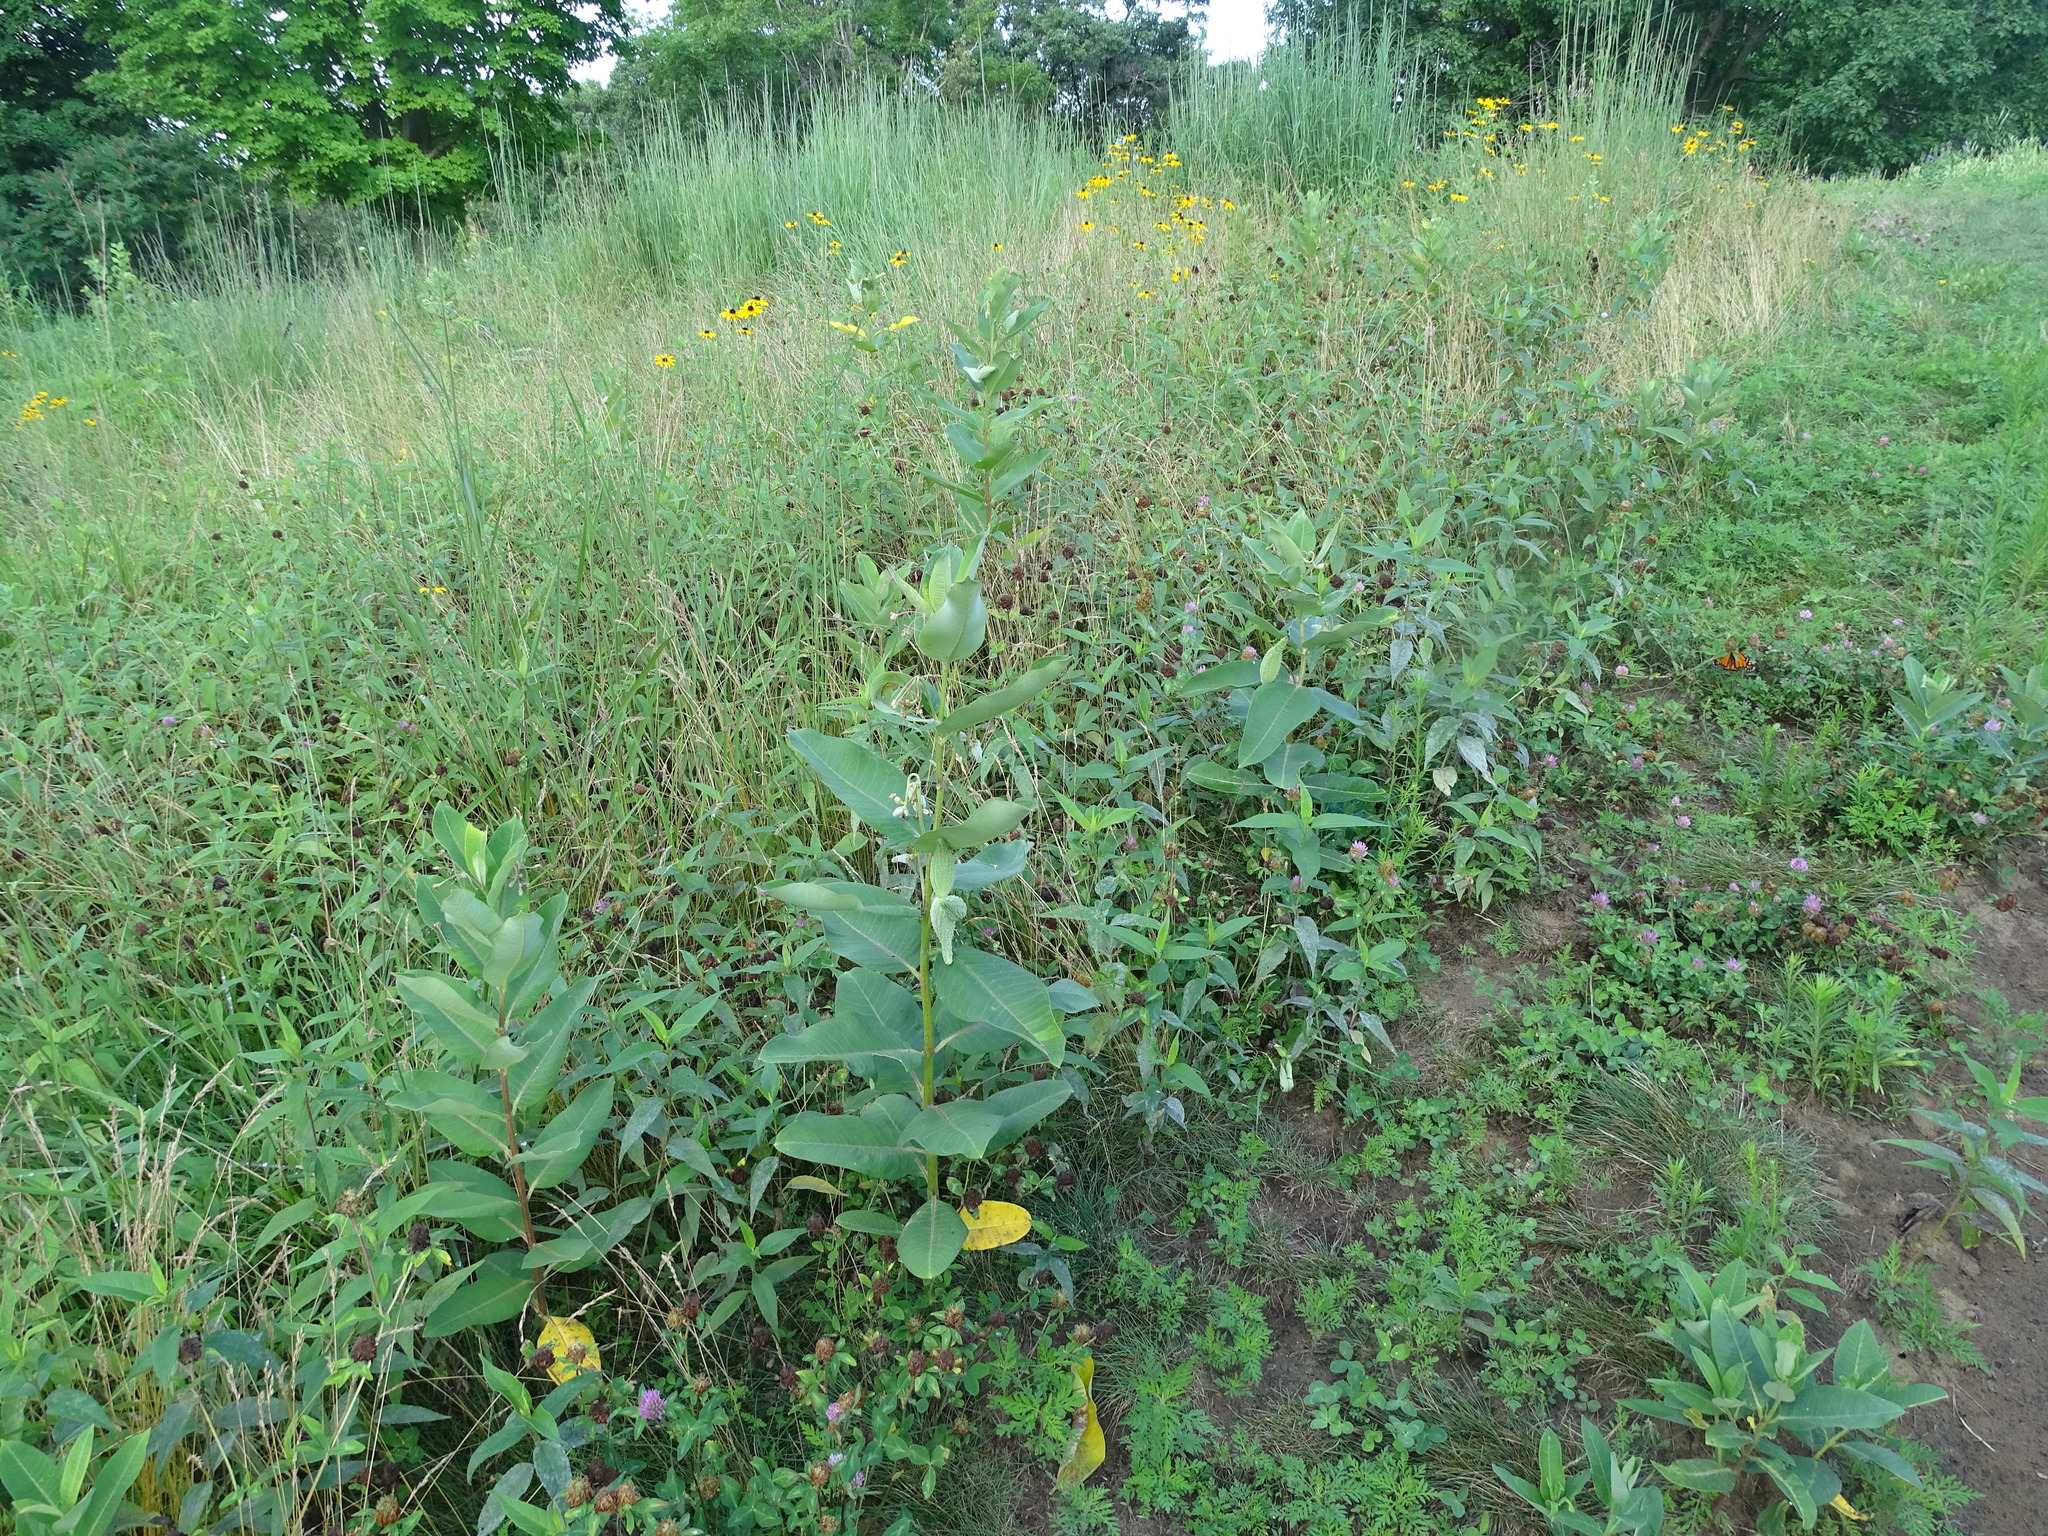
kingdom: Plantae
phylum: Tracheophyta
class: Magnoliopsida
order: Gentianales
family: Apocynaceae
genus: Asclepias
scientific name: Asclepias syriaca
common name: Common milkweed
